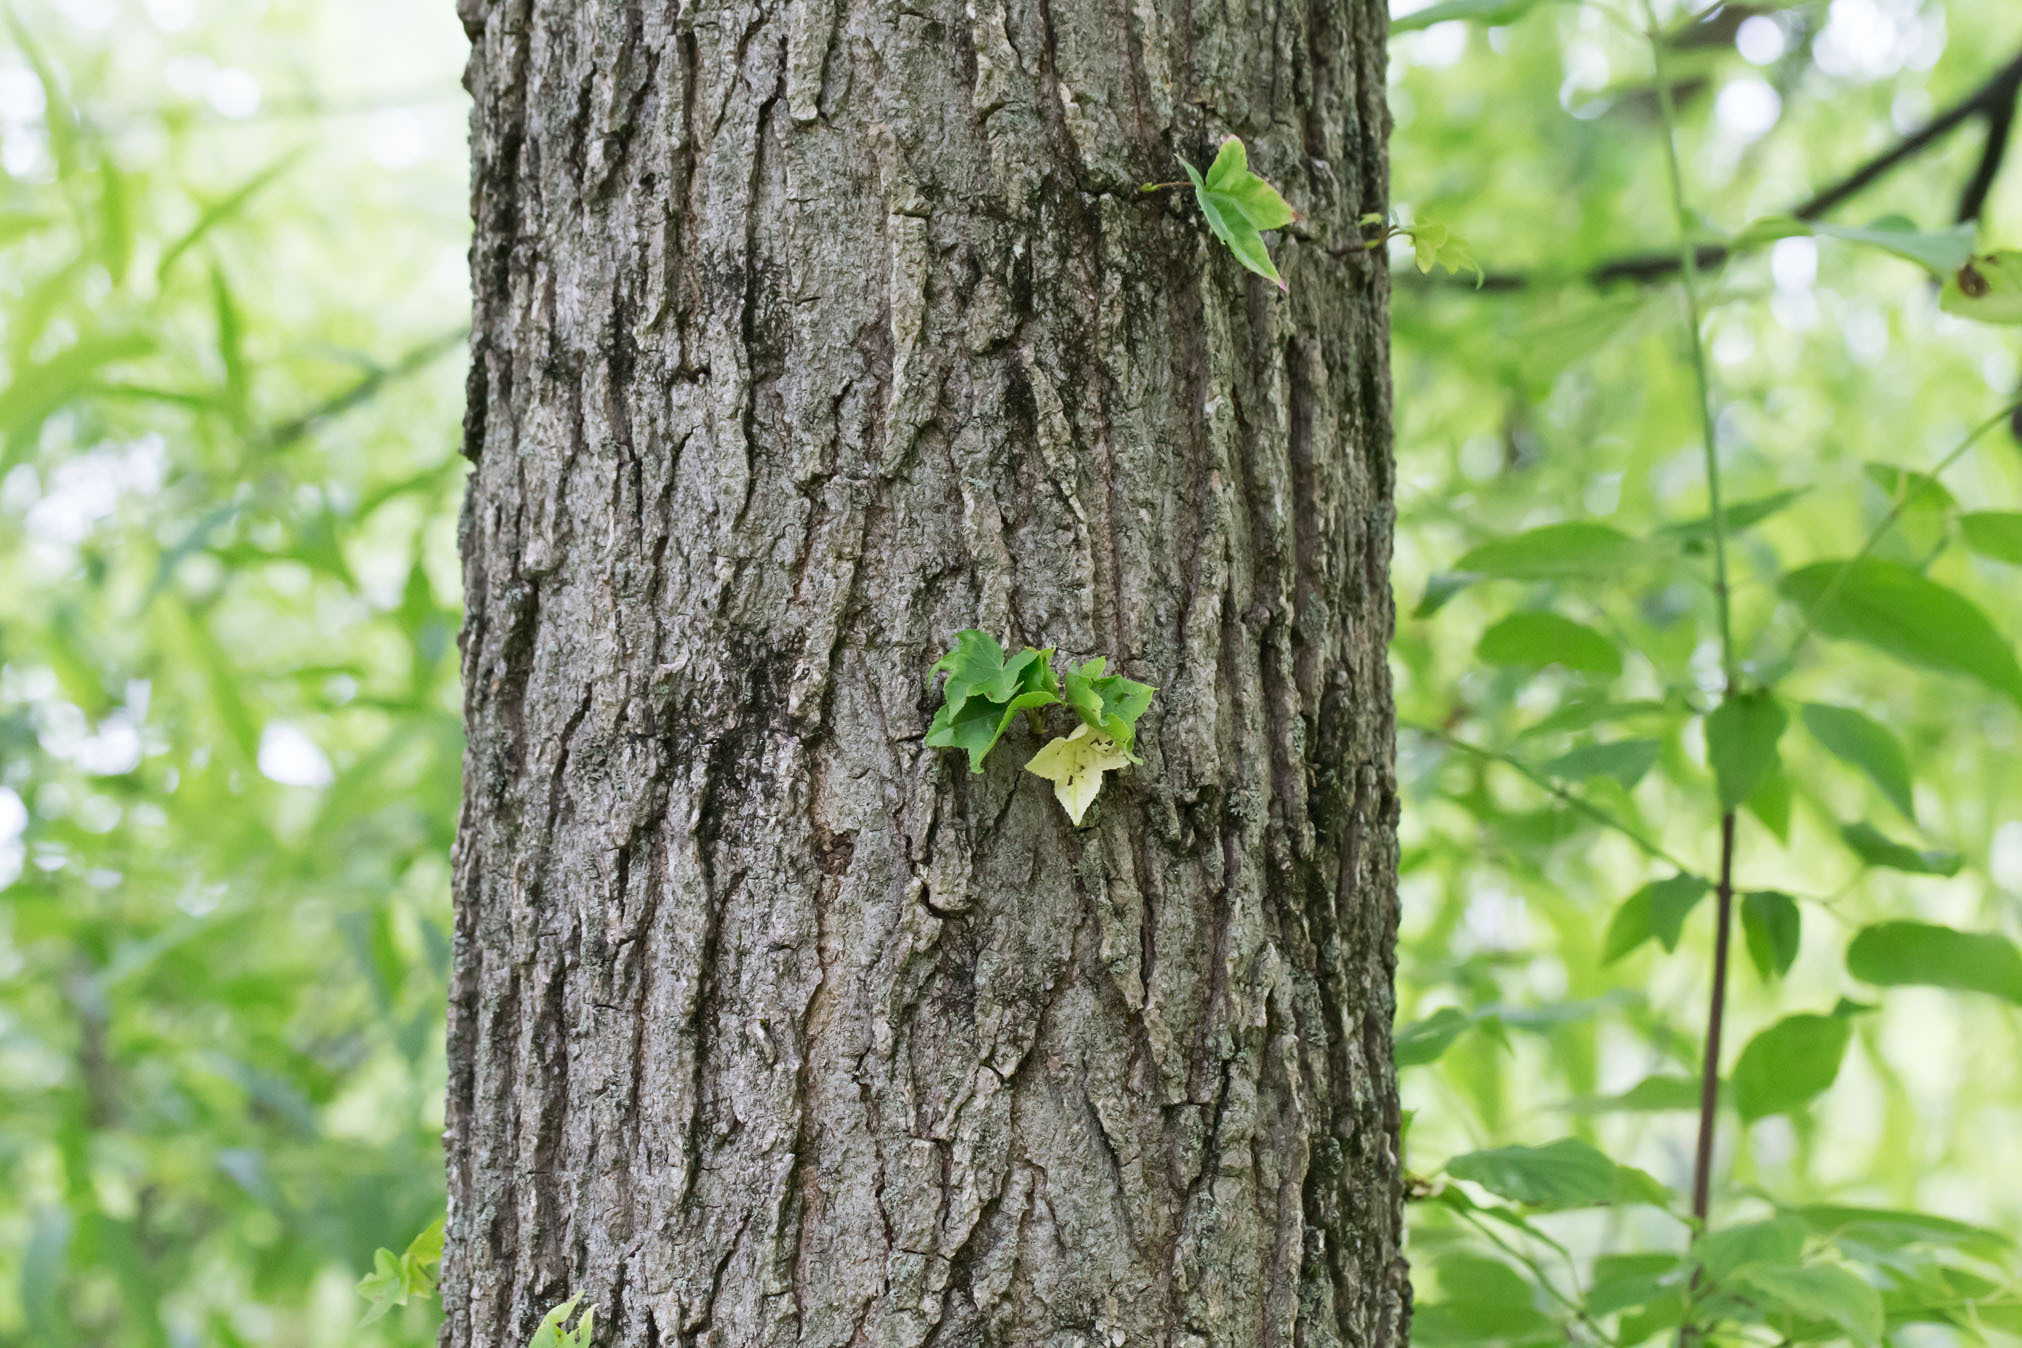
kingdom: Plantae
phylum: Tracheophyta
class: Magnoliopsida
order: Saxifragales
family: Altingiaceae
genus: Liquidambar
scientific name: Liquidambar styraciflua
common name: Sweet gum
